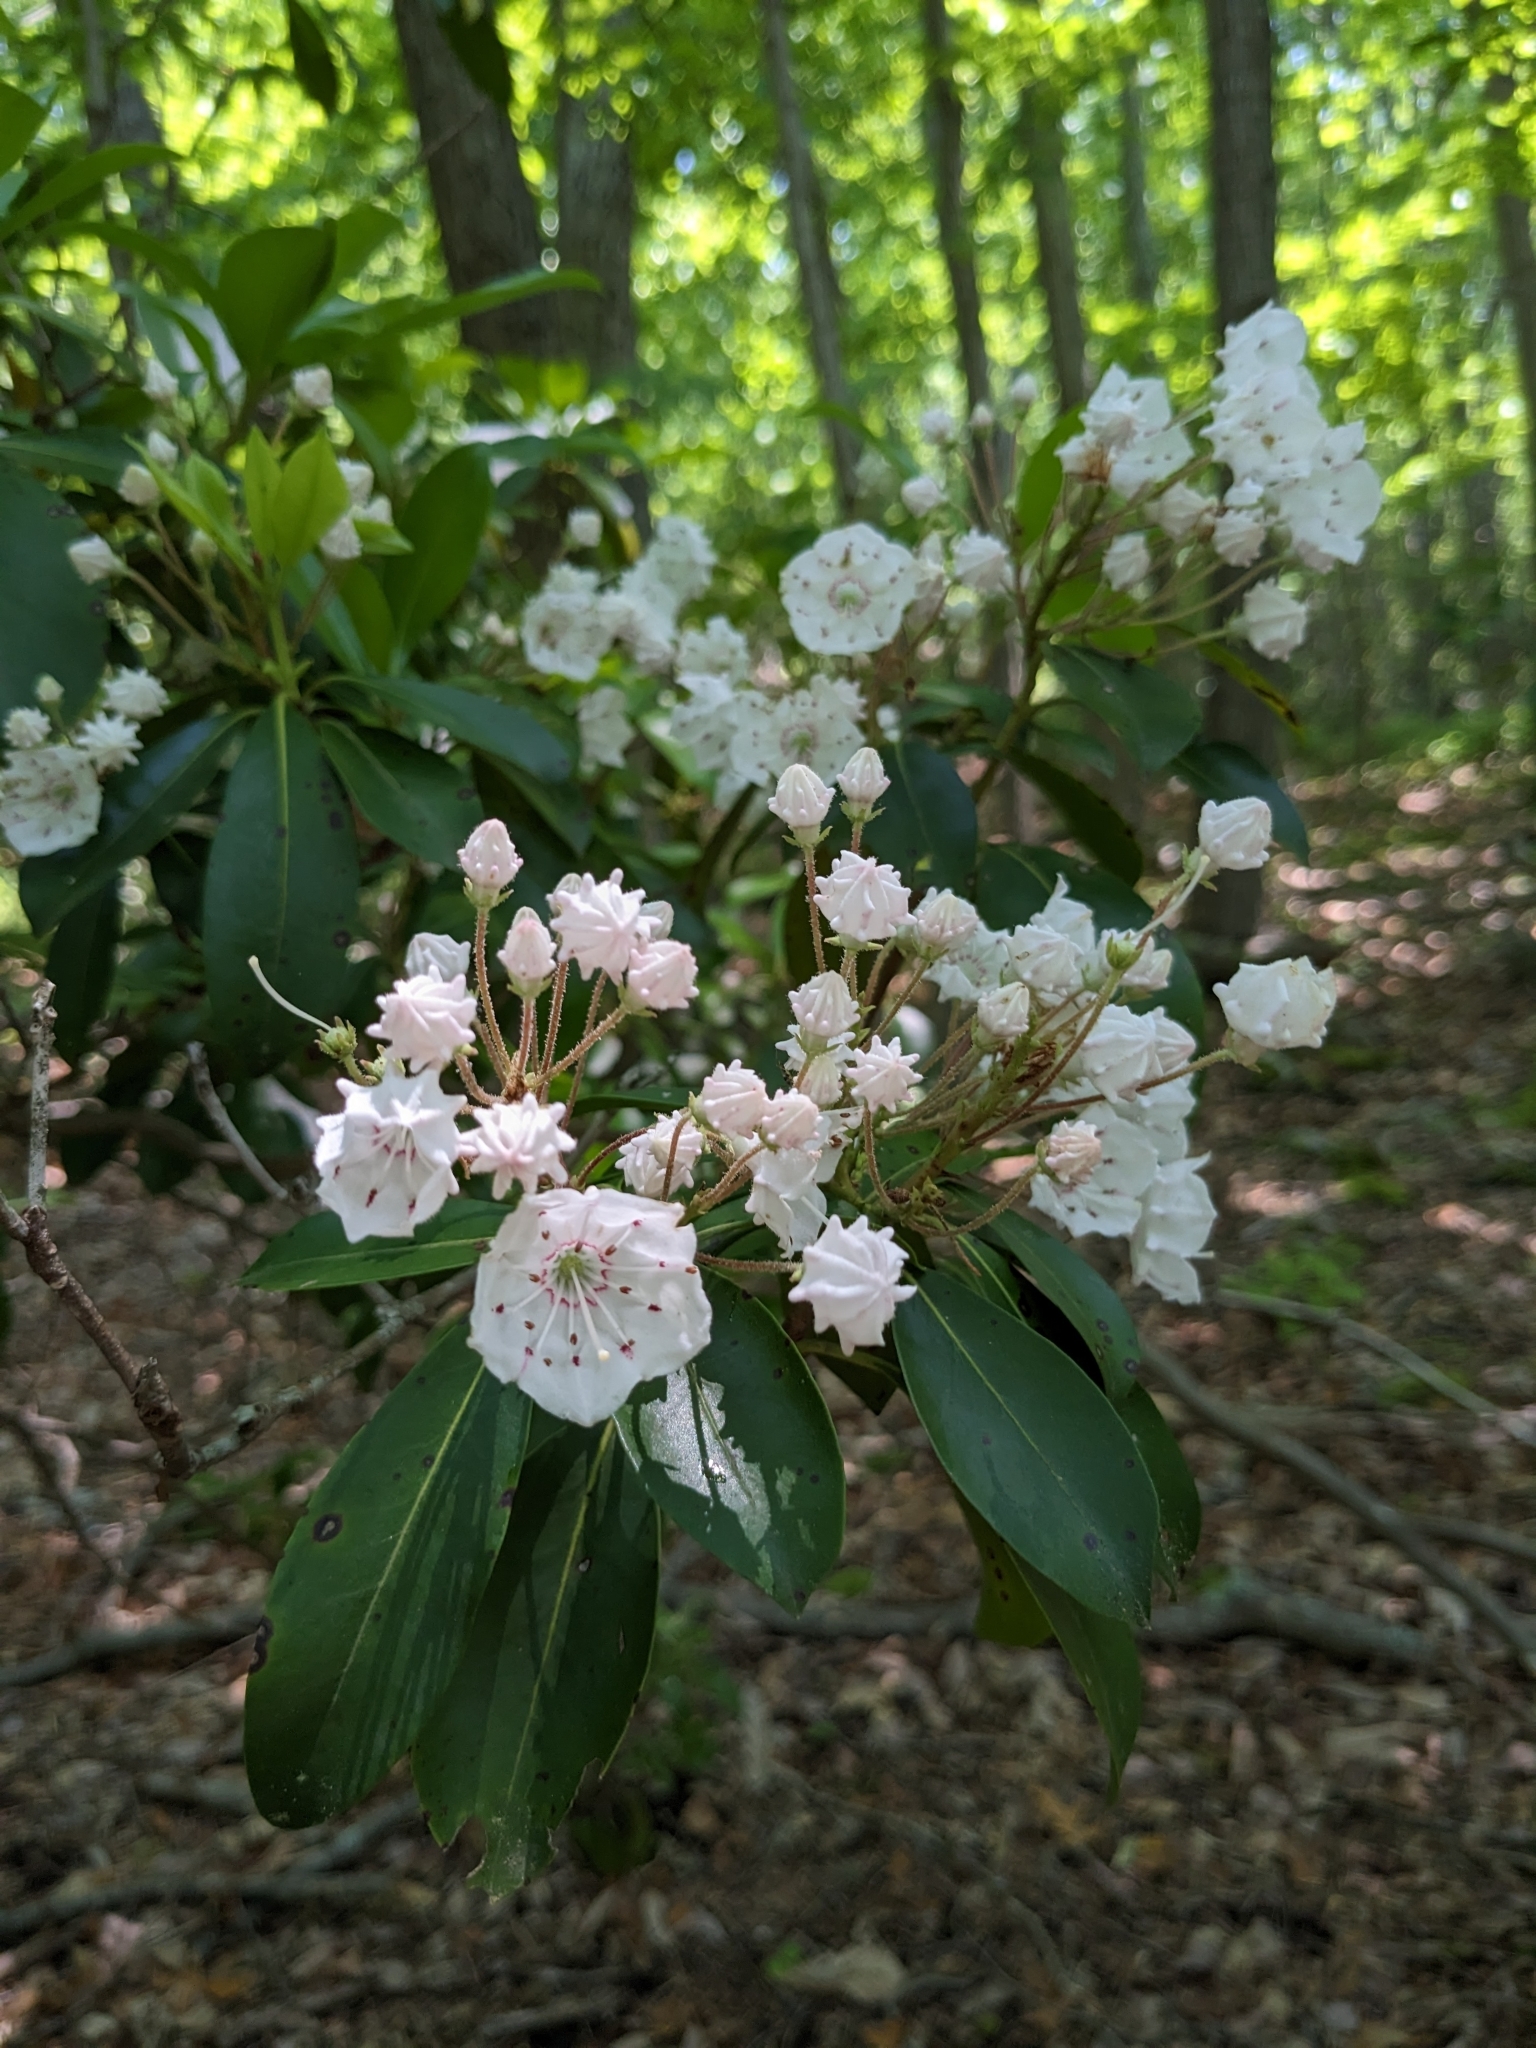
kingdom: Plantae
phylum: Tracheophyta
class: Magnoliopsida
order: Ericales
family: Ericaceae
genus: Kalmia
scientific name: Kalmia latifolia
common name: Mountain-laurel
